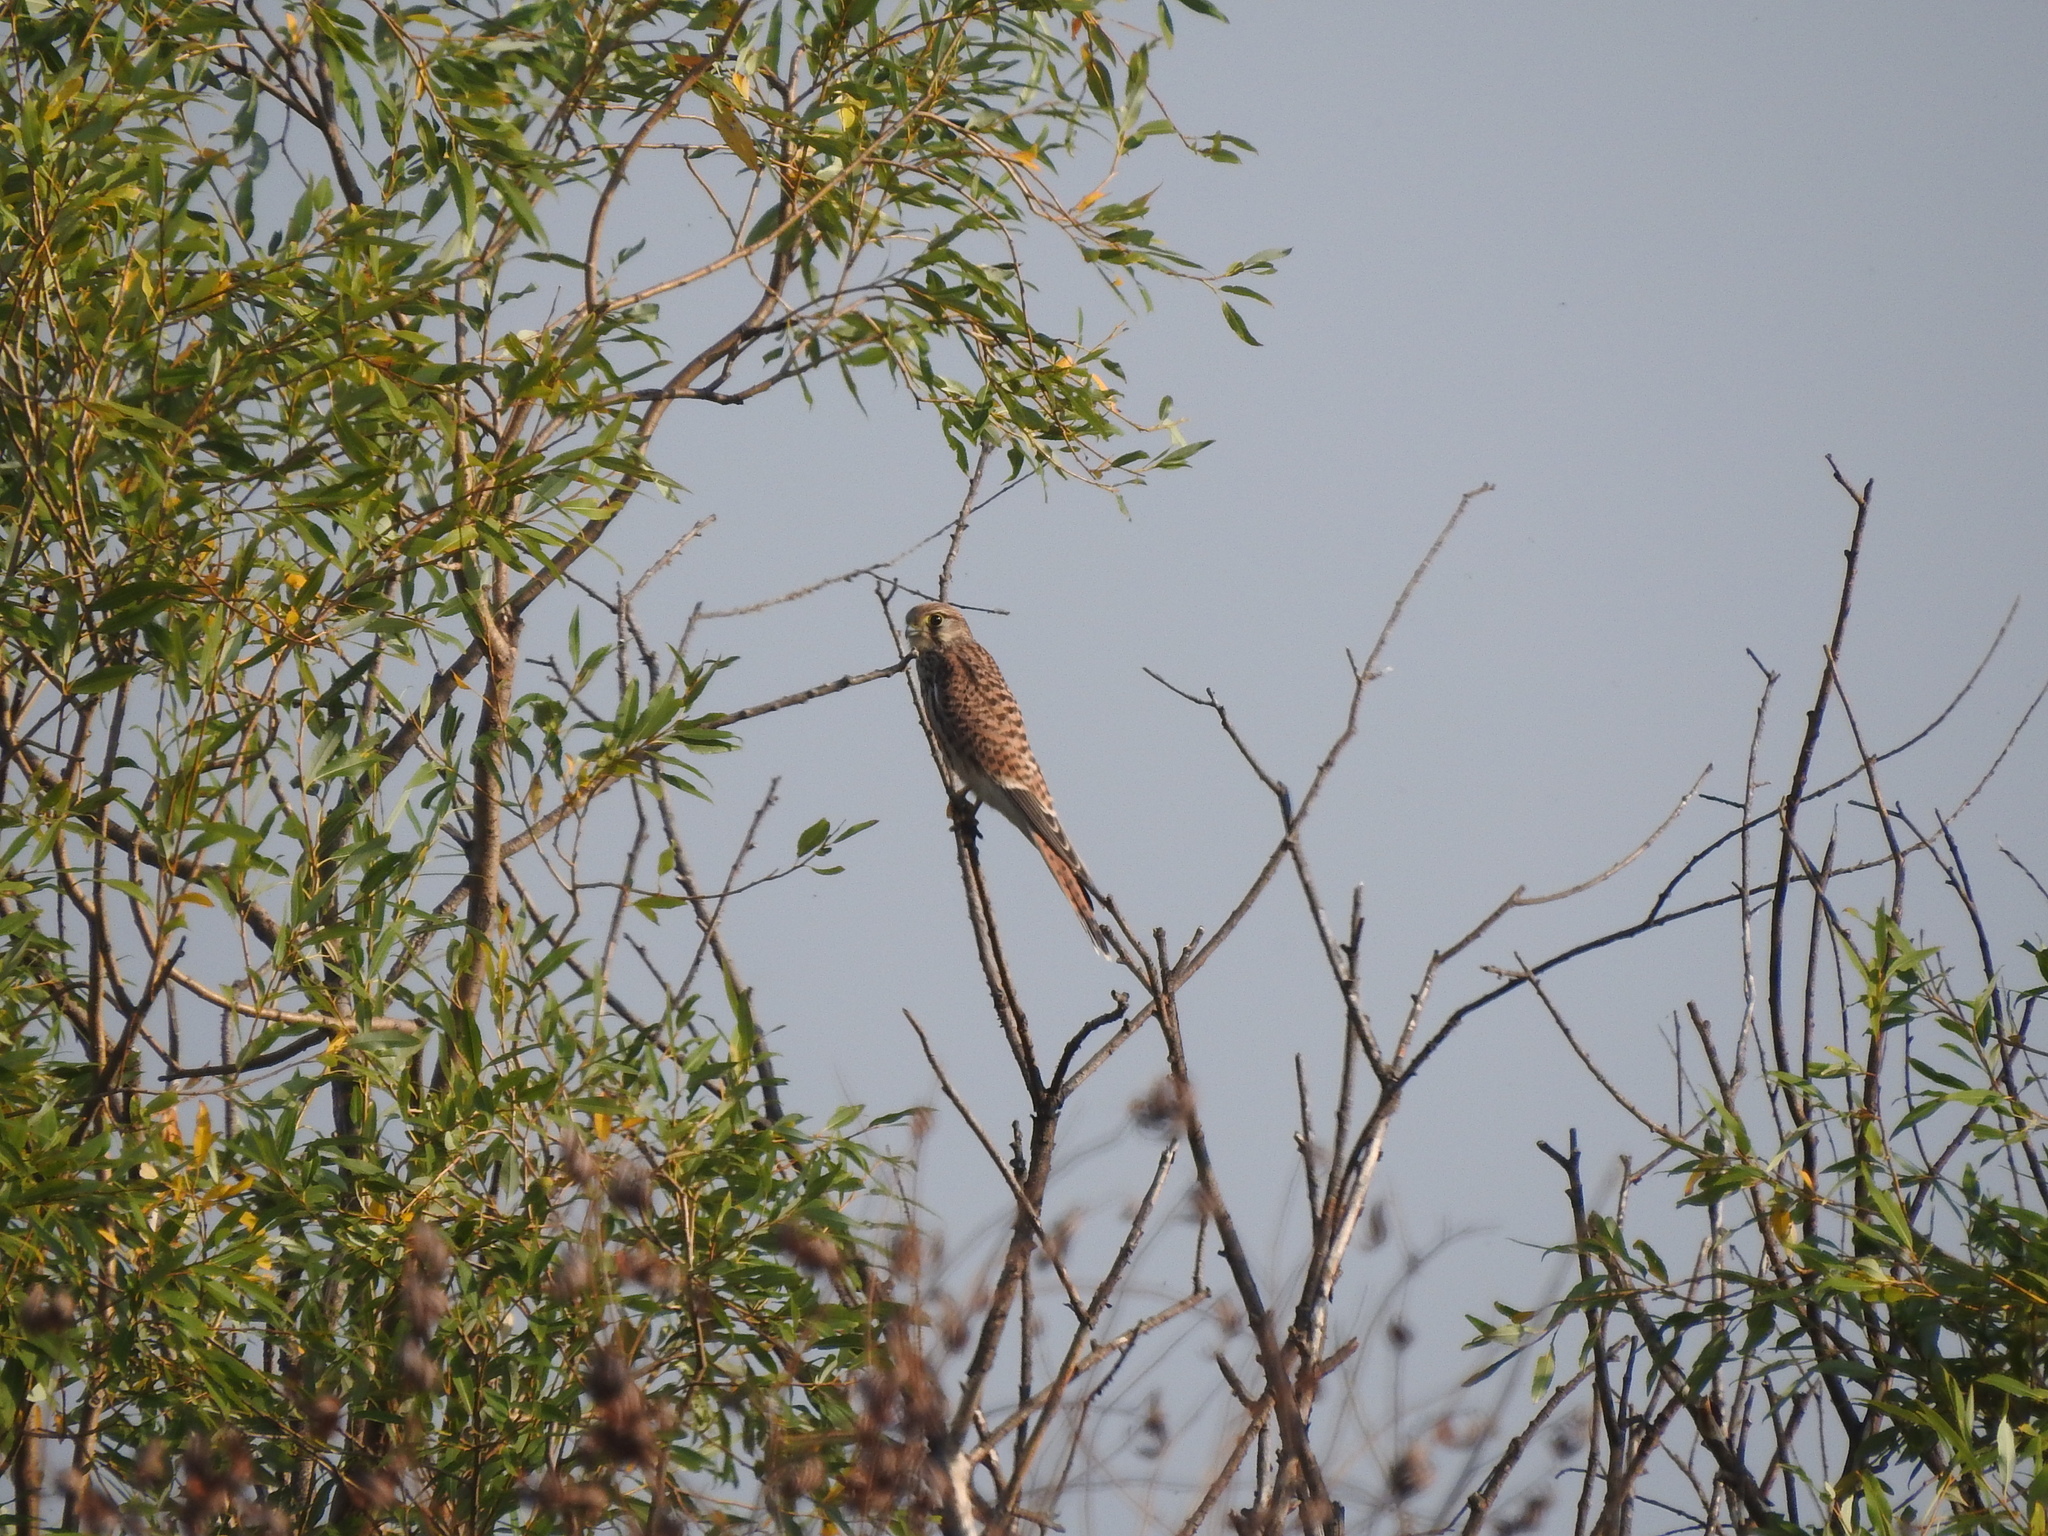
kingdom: Animalia
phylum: Chordata
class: Aves
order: Falconiformes
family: Falconidae
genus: Falco
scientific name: Falco tinnunculus
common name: Common kestrel
